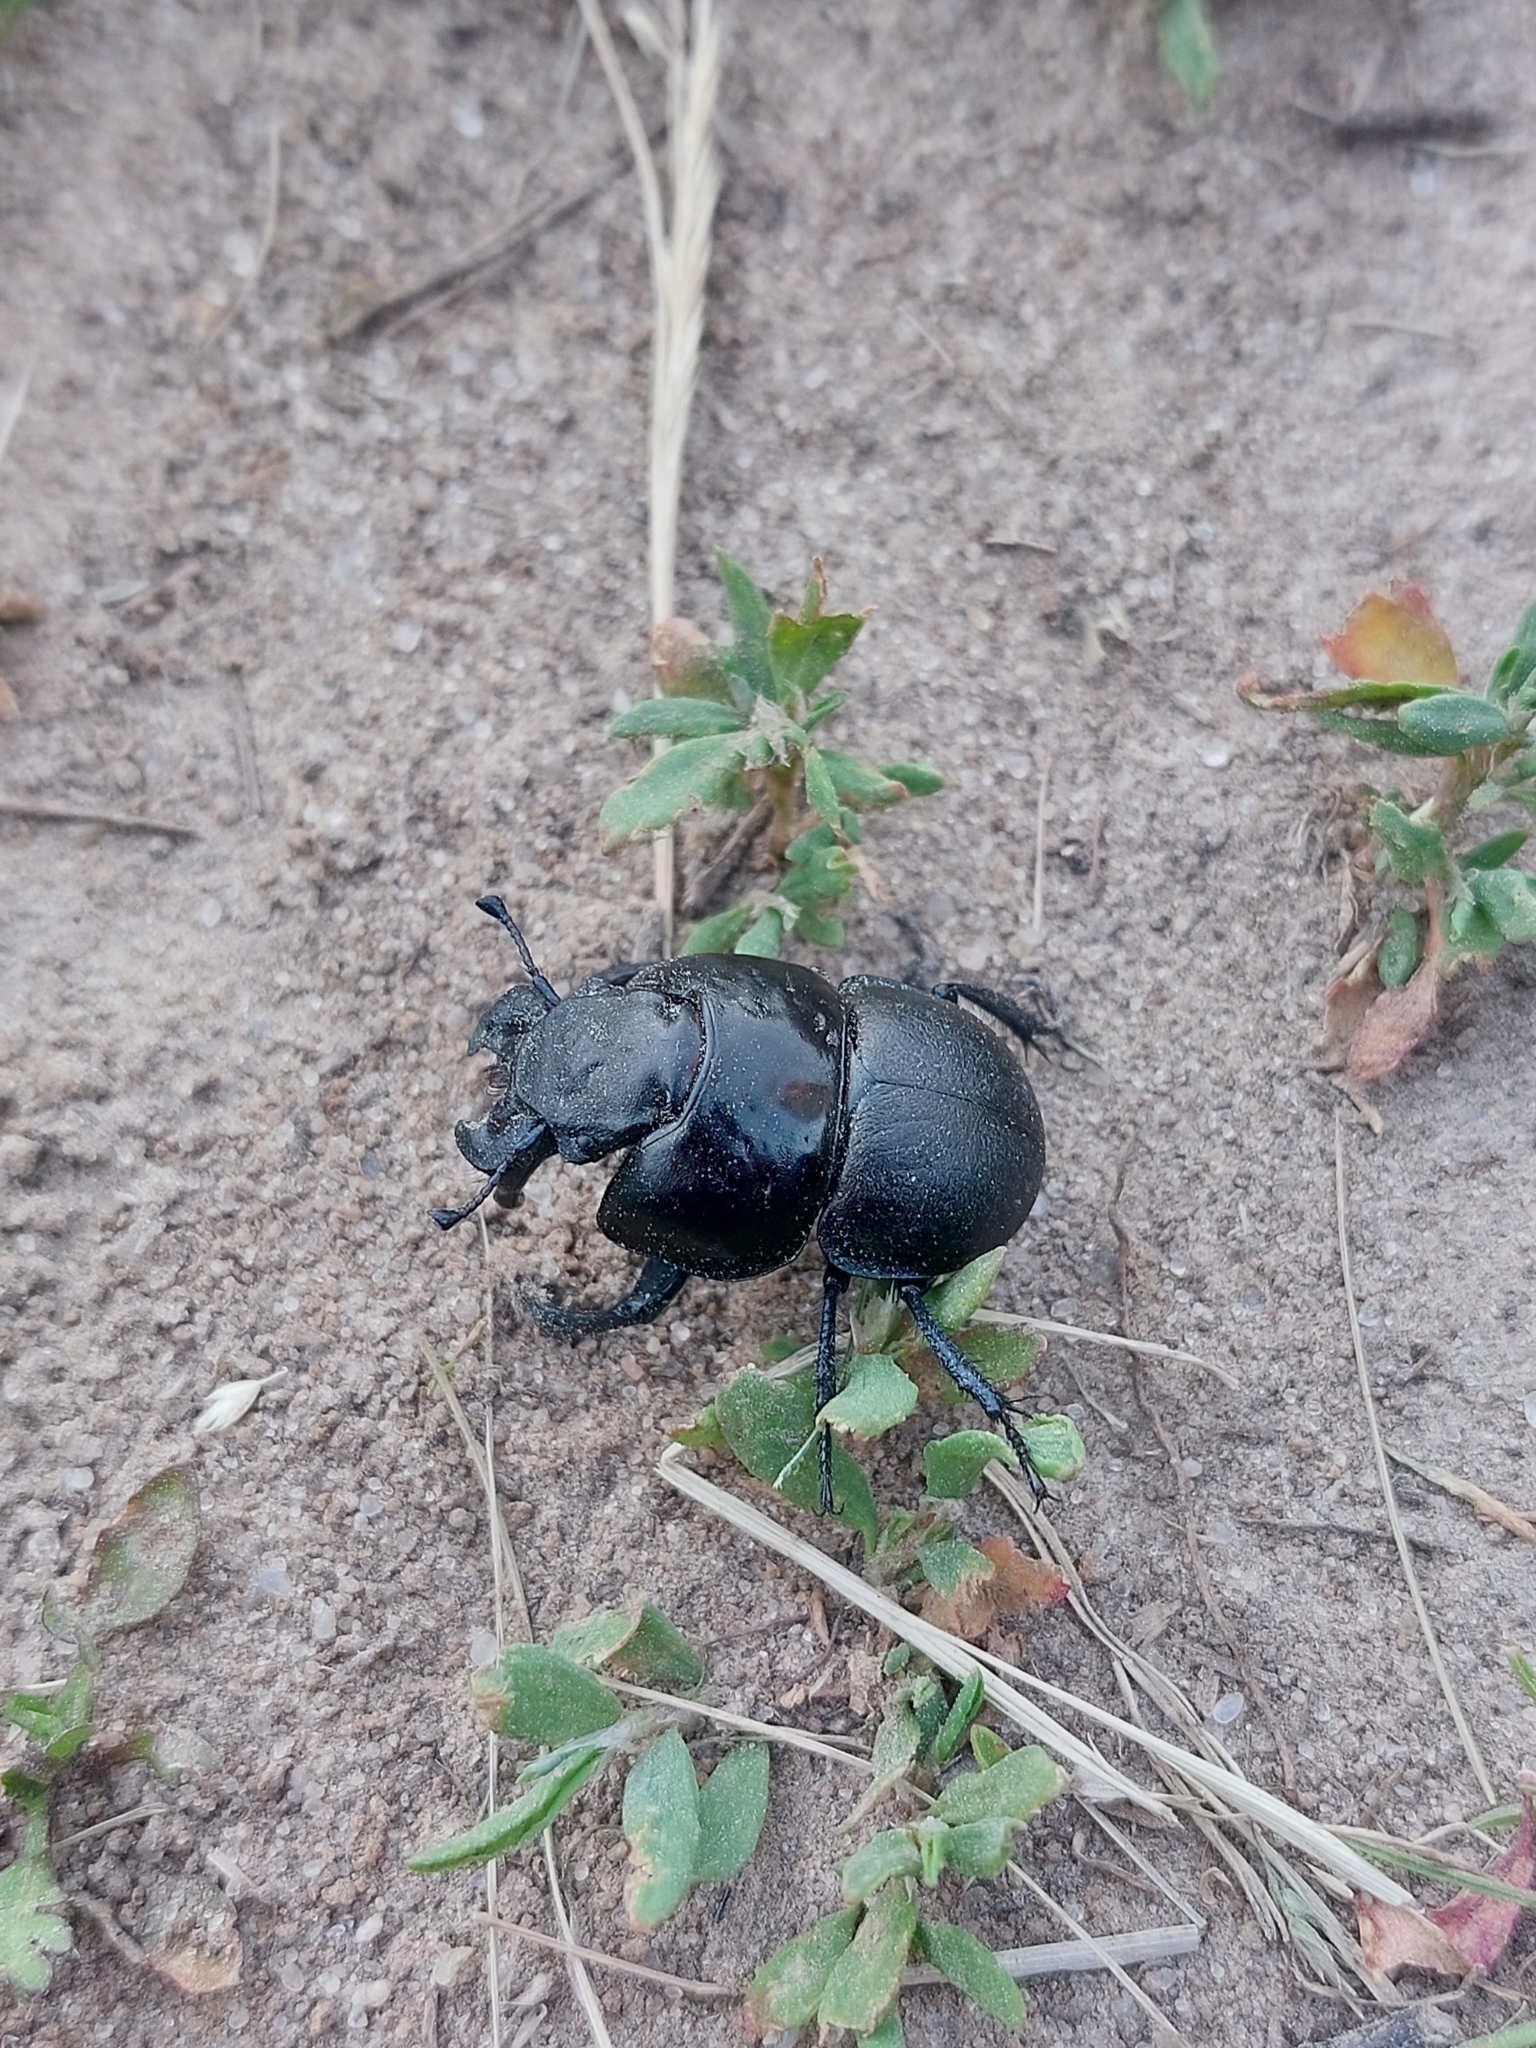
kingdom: Animalia
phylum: Arthropoda
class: Insecta
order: Coleoptera
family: Geotrupidae
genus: Lethrus
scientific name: Lethrus apterus
